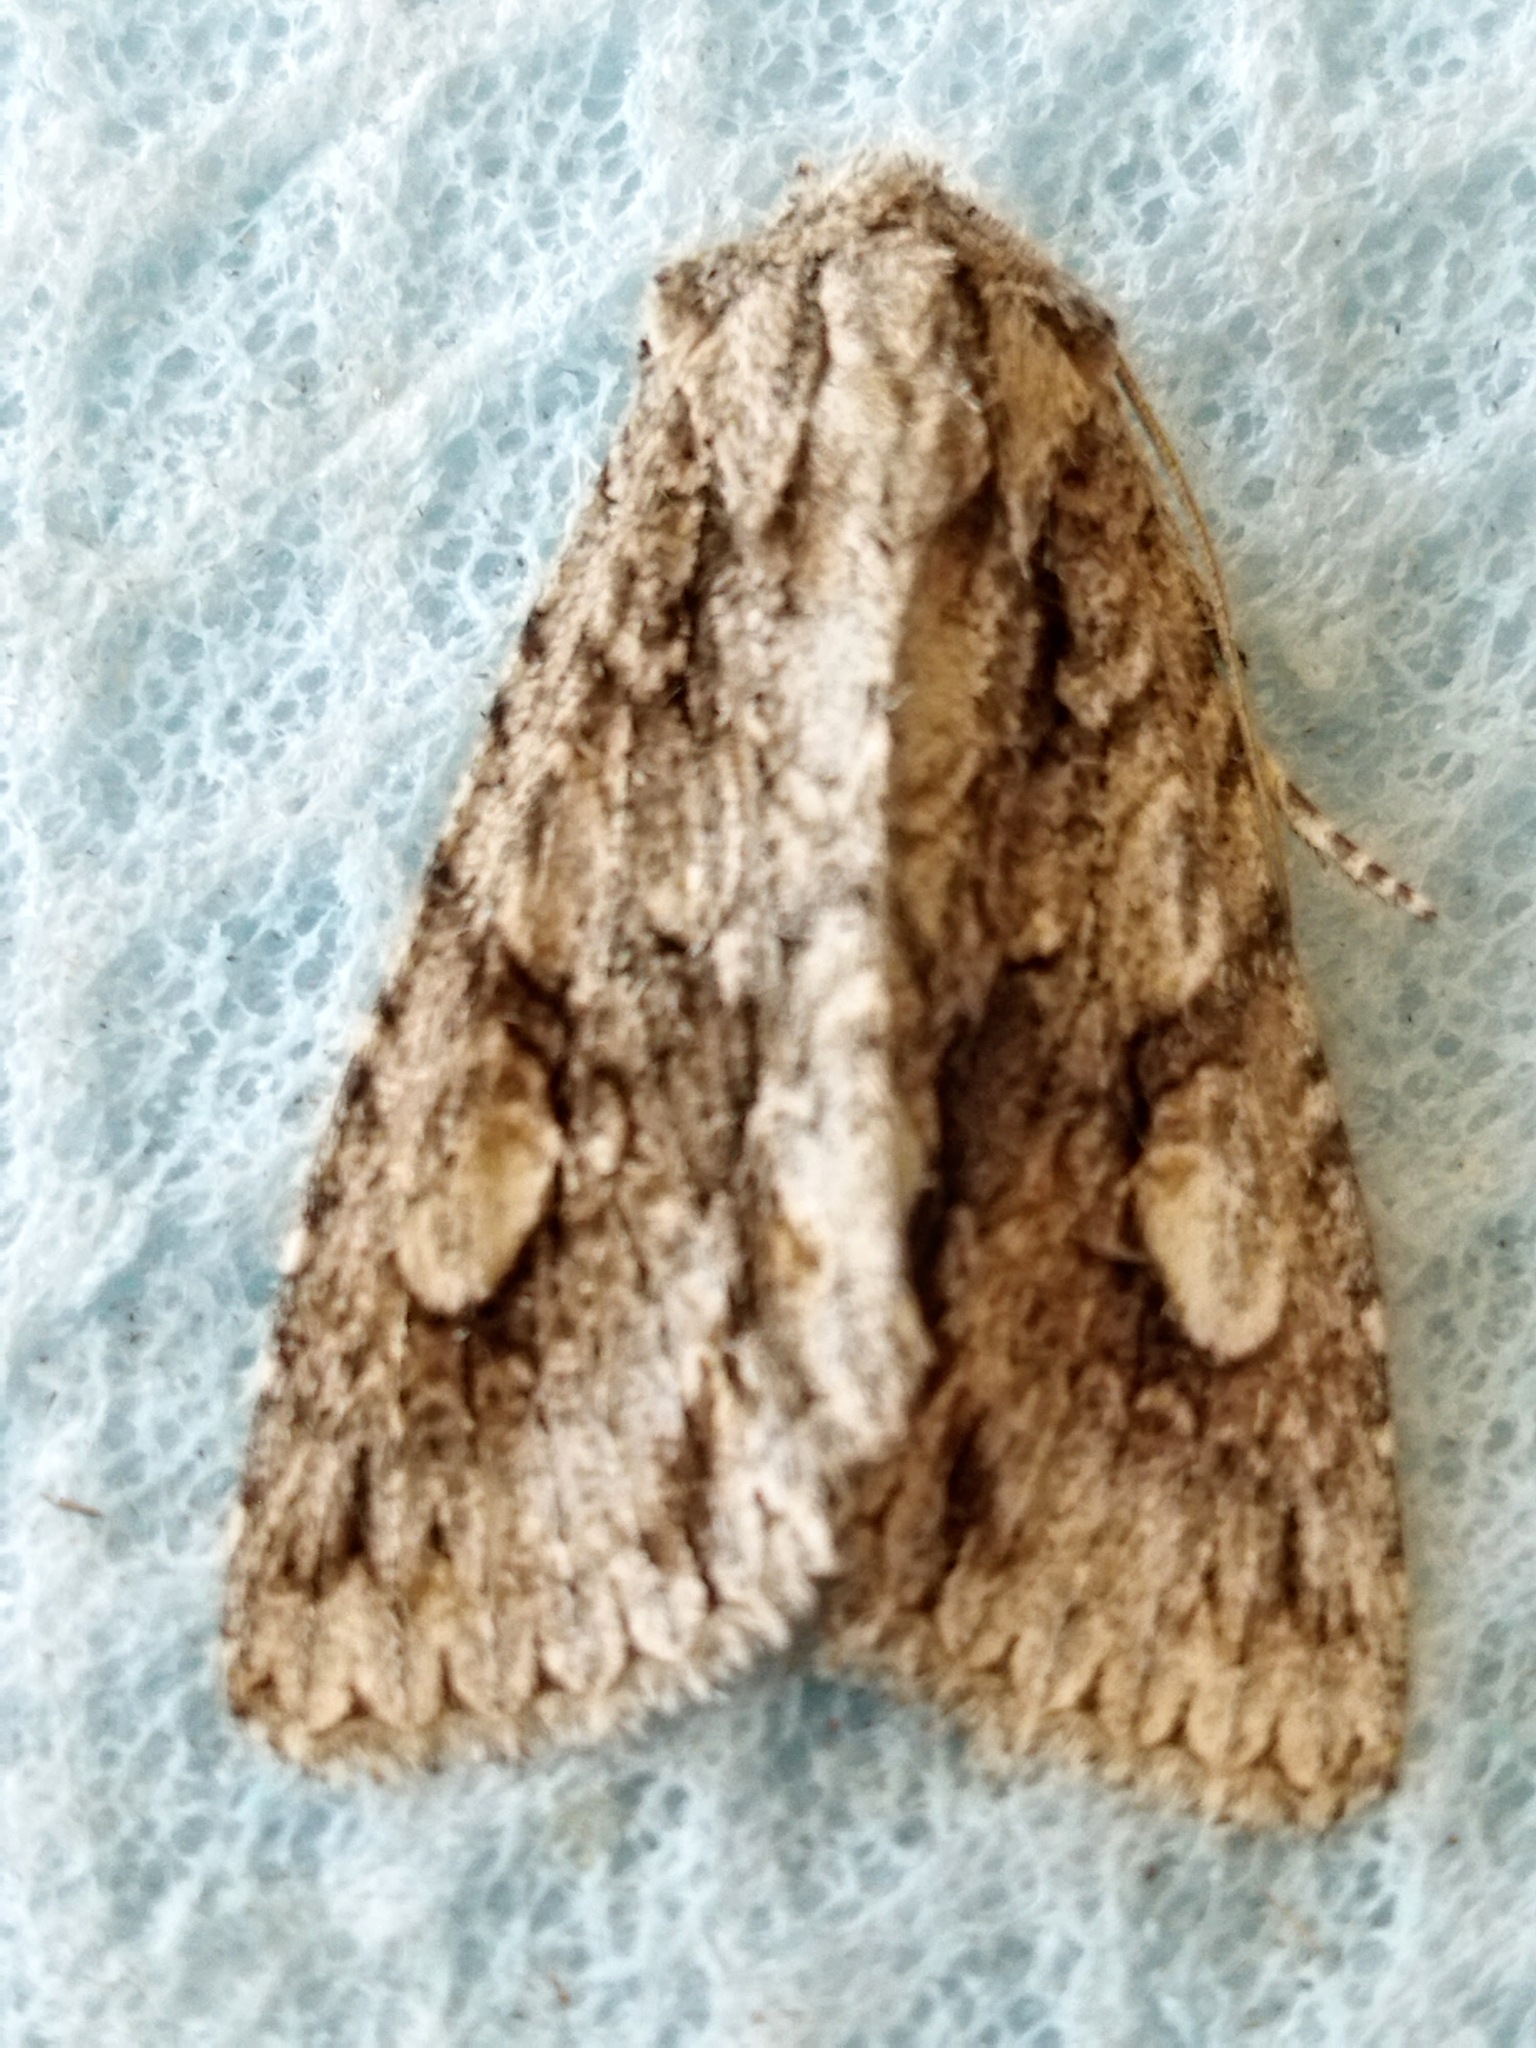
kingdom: Animalia
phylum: Arthropoda
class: Insecta
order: Lepidoptera
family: Noctuidae
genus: Meganephria
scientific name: Meganephria bimaculosa
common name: Double-spot brocade
